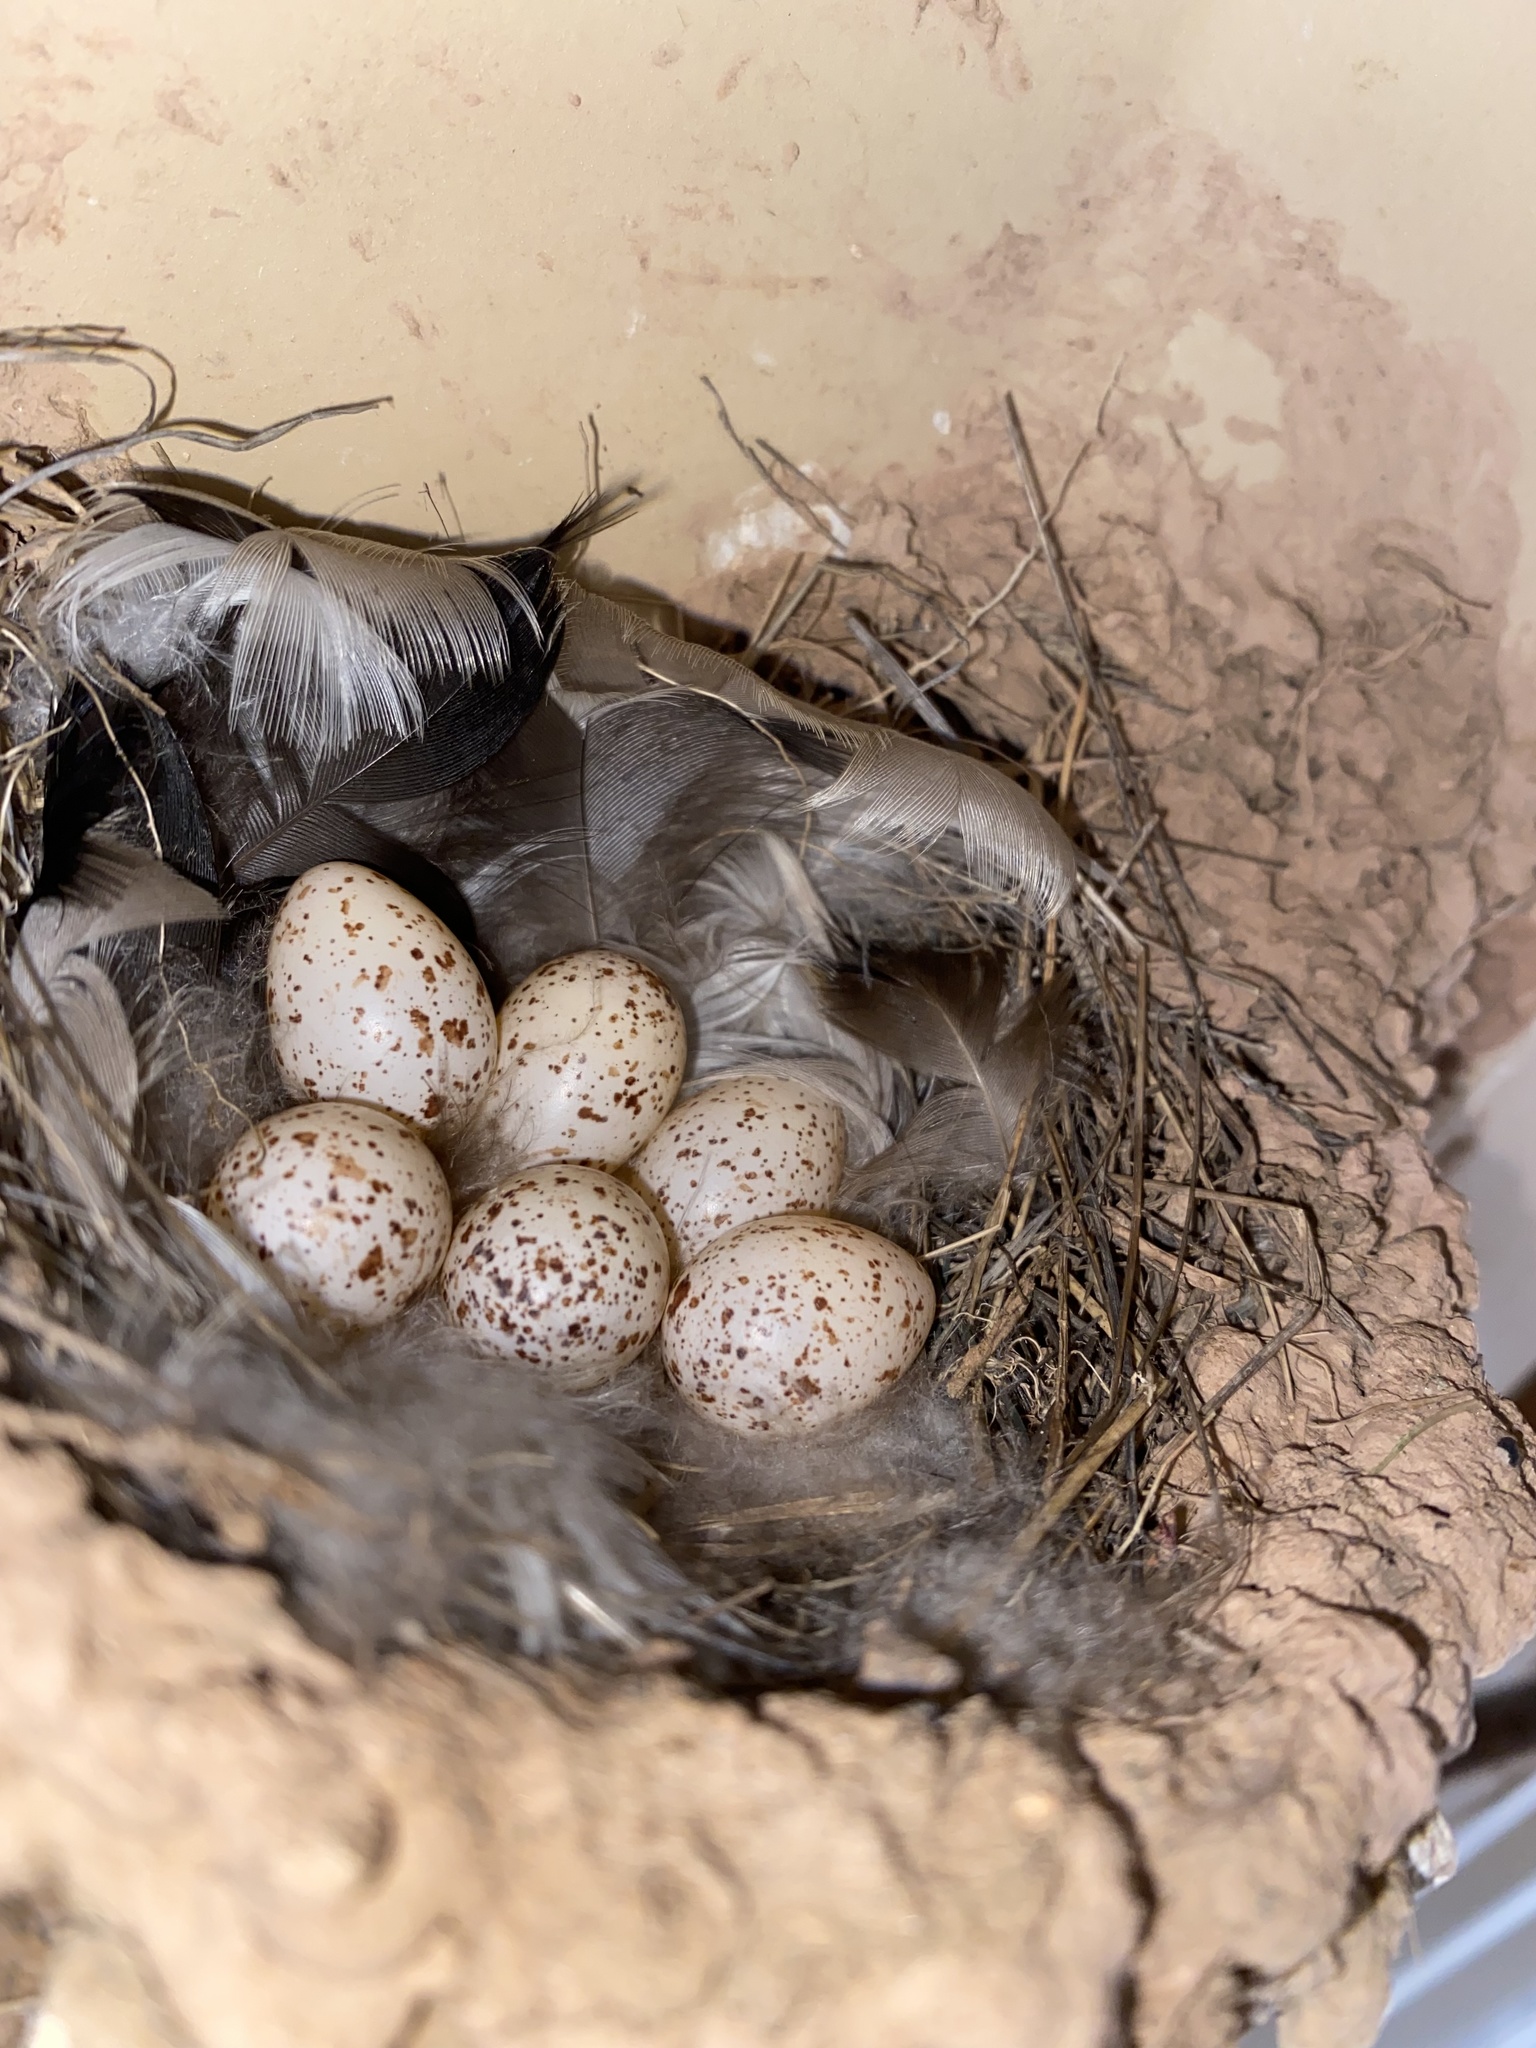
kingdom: Animalia
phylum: Chordata
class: Aves
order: Passeriformes
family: Hirundinidae
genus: Hirundo
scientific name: Hirundo rustica
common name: Barn swallow
